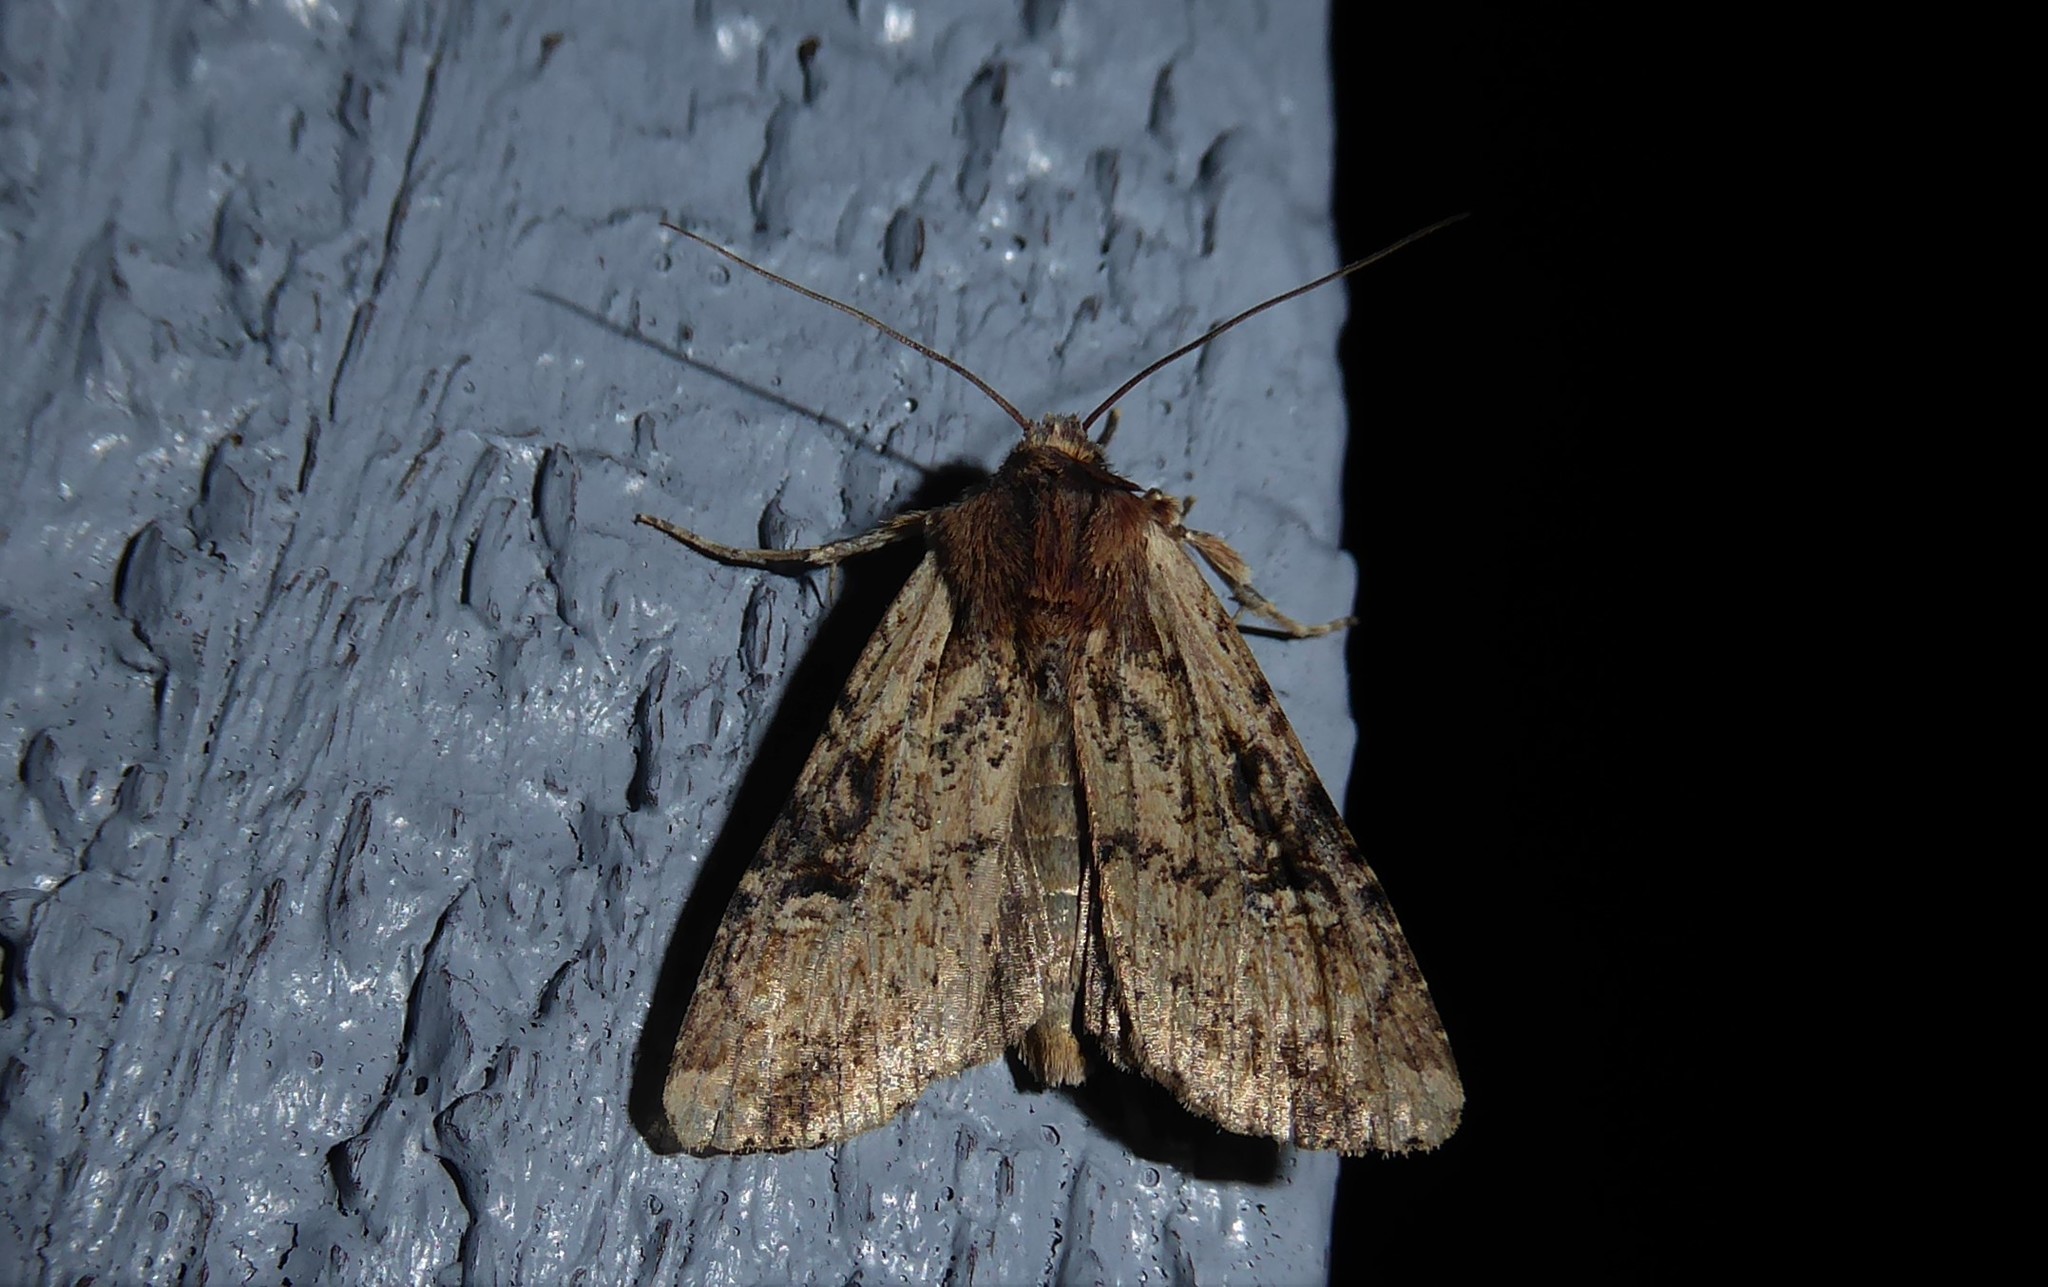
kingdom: Animalia
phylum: Arthropoda
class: Insecta
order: Lepidoptera
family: Noctuidae
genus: Ichneutica
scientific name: Ichneutica omoplaca
